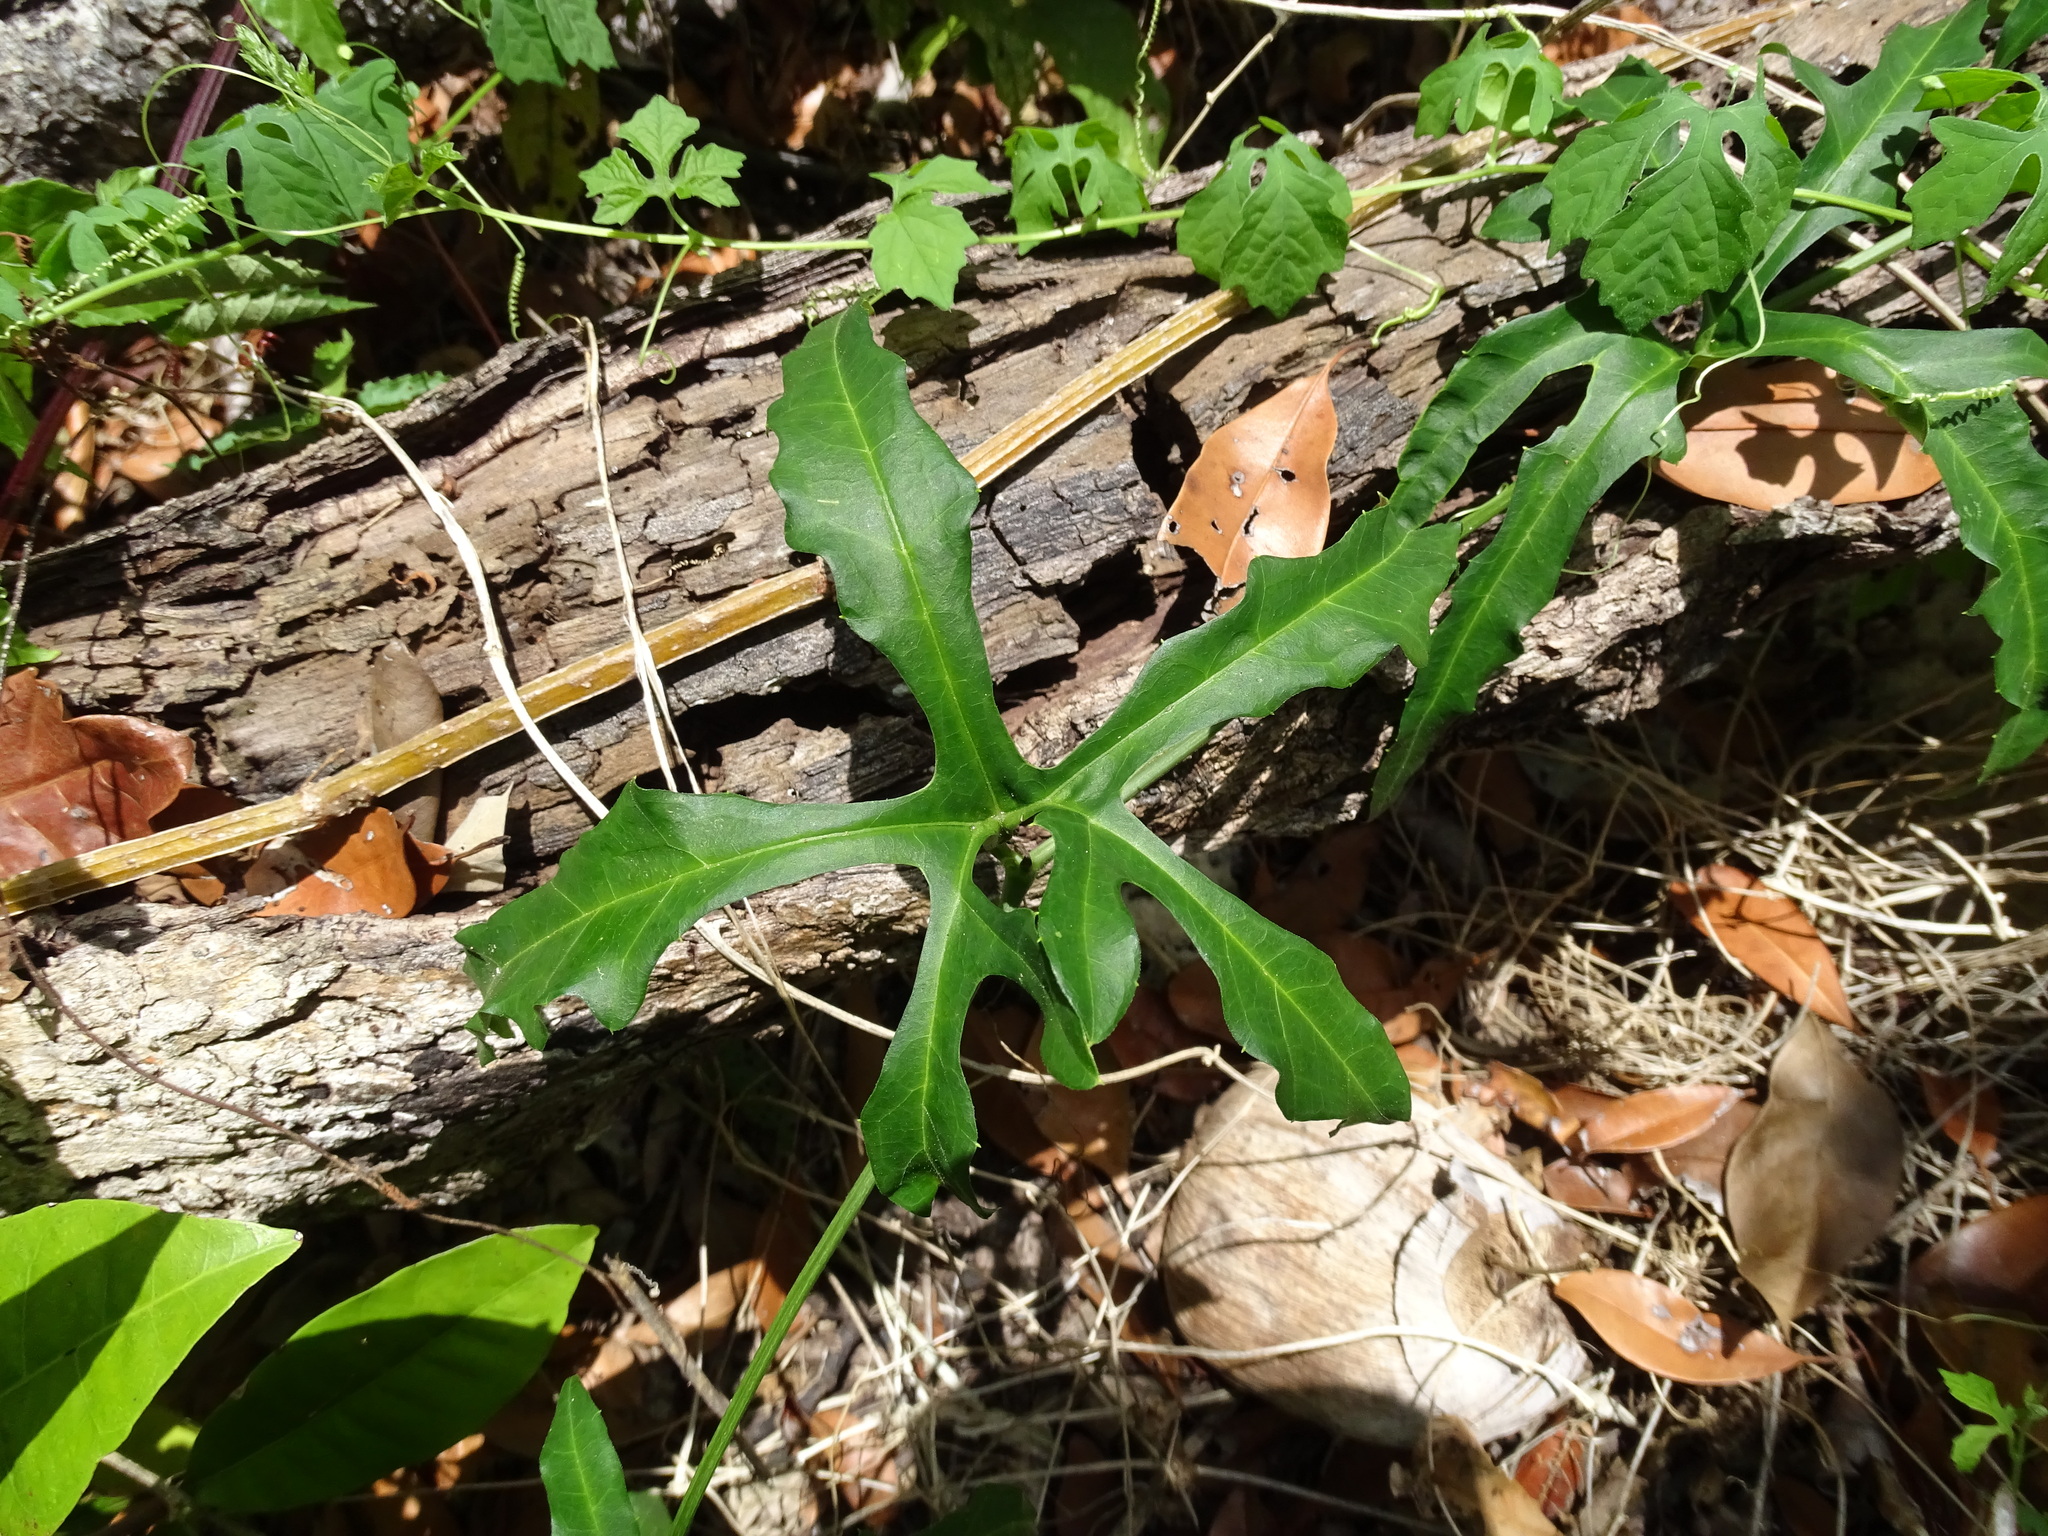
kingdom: Plantae
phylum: Tracheophyta
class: Magnoliopsida
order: Cucurbitales
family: Cucurbitaceae
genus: Cionosicys
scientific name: Cionosicys excisus
